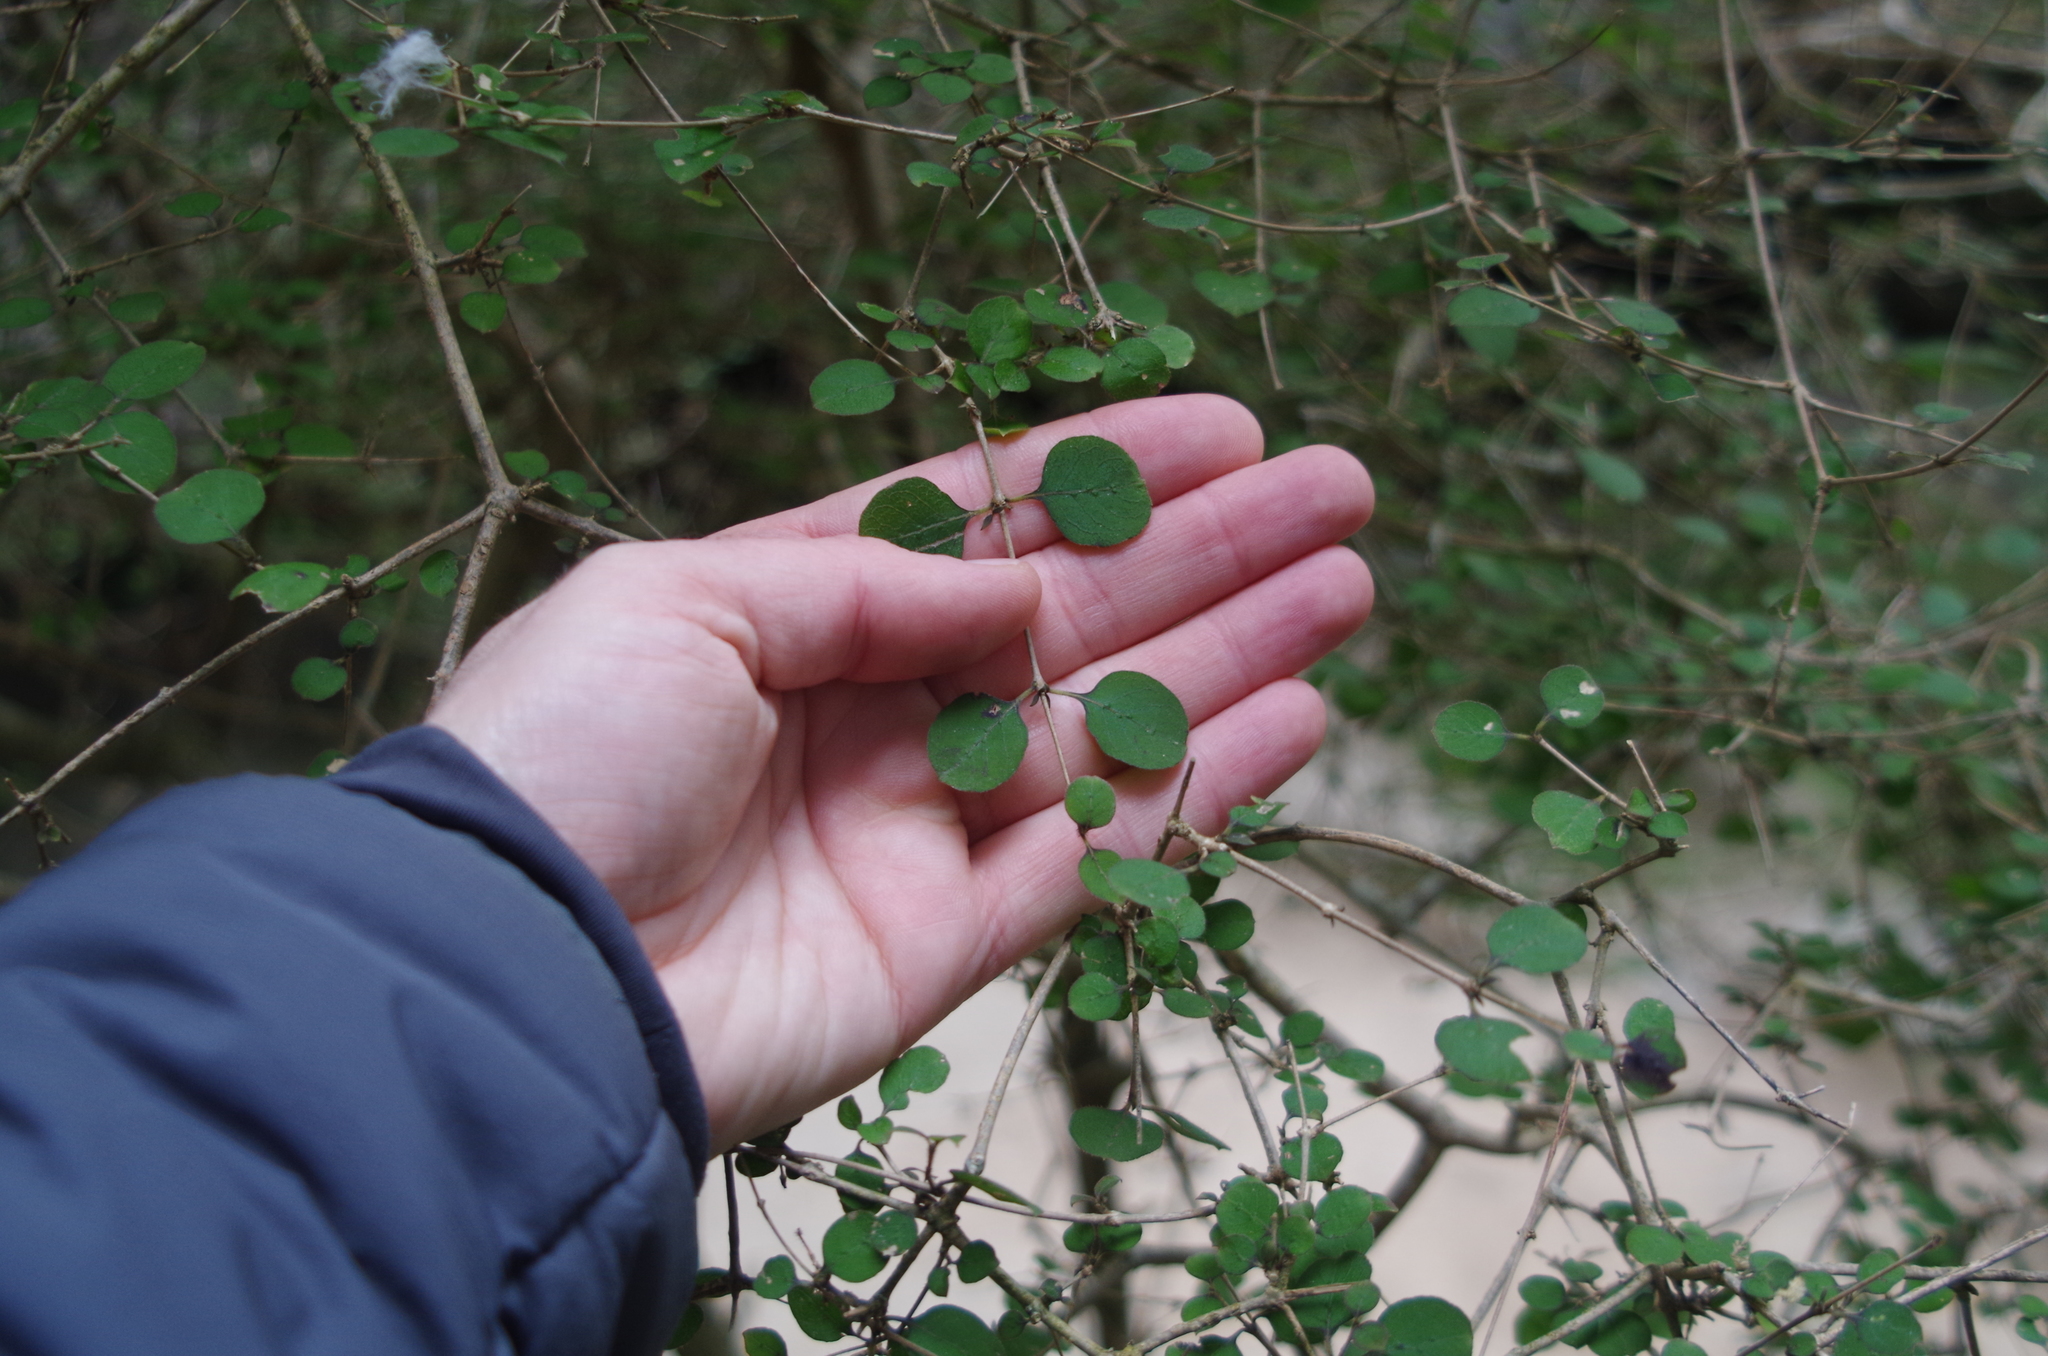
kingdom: Plantae
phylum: Tracheophyta
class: Magnoliopsida
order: Gentianales
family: Rubiaceae
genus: Coprosma
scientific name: Coprosma rotundifolia
